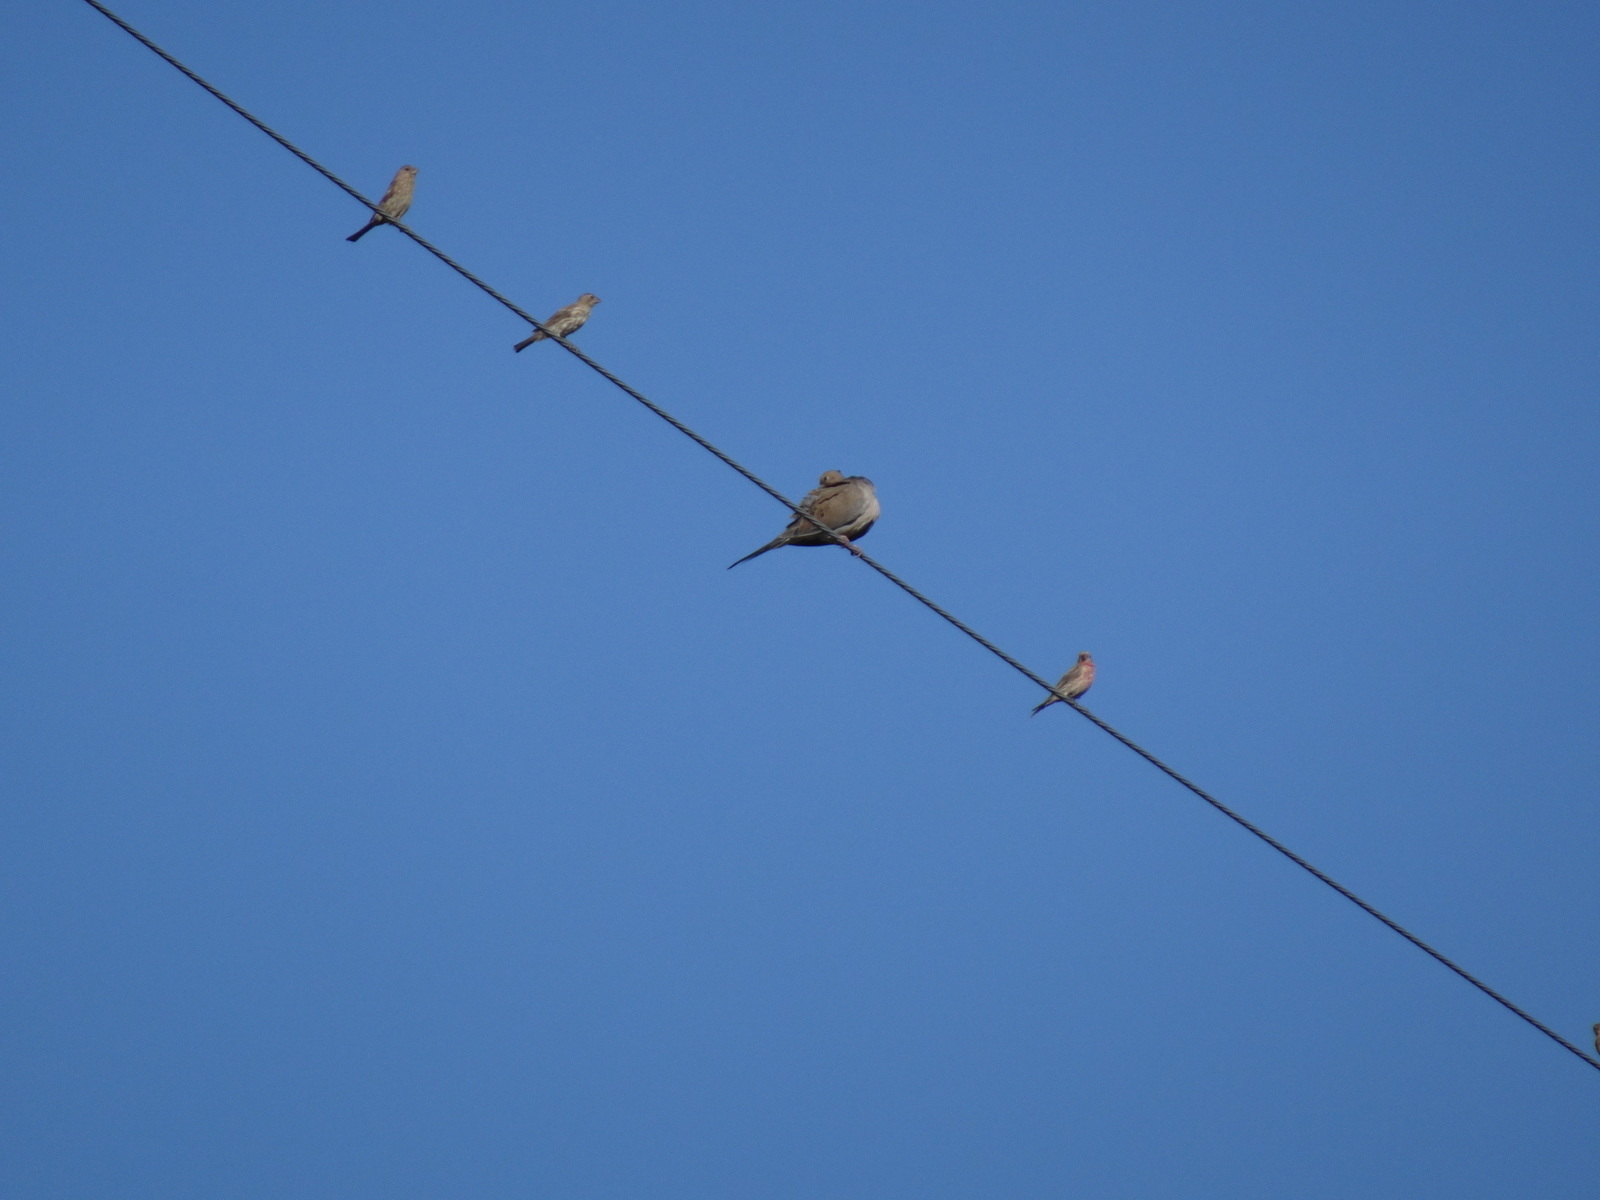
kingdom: Animalia
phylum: Chordata
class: Aves
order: Columbiformes
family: Columbidae
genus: Zenaida
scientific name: Zenaida macroura
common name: Mourning dove
